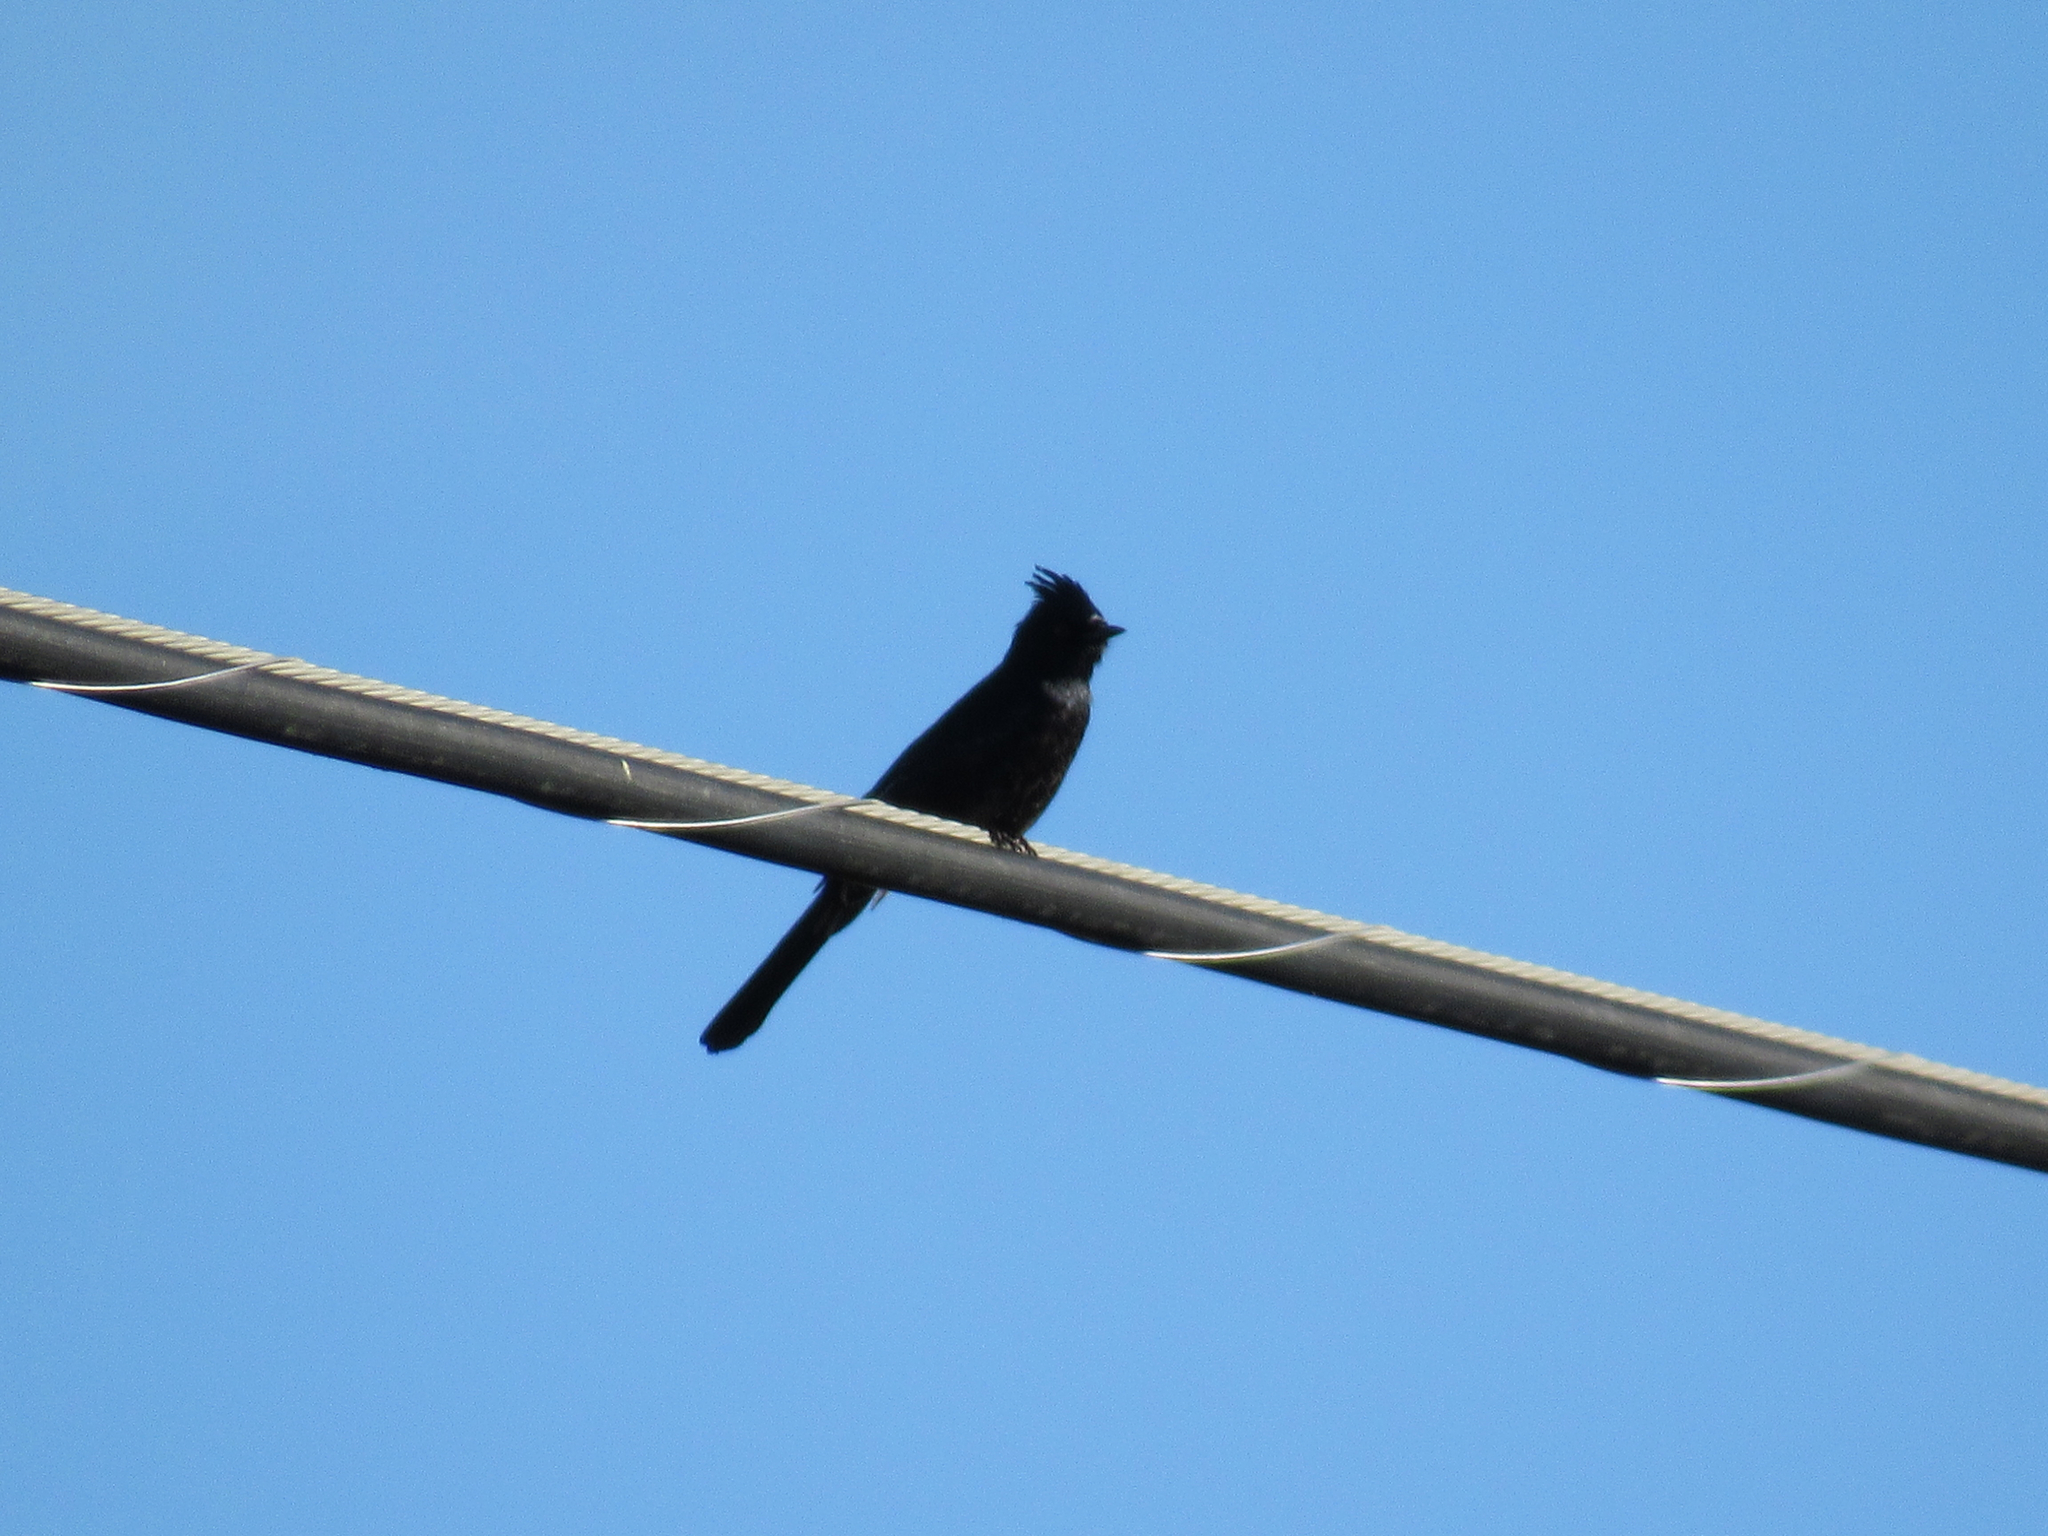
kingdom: Animalia
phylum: Chordata
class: Aves
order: Passeriformes
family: Ptilogonatidae
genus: Phainopepla
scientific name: Phainopepla nitens
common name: Phainopepla
